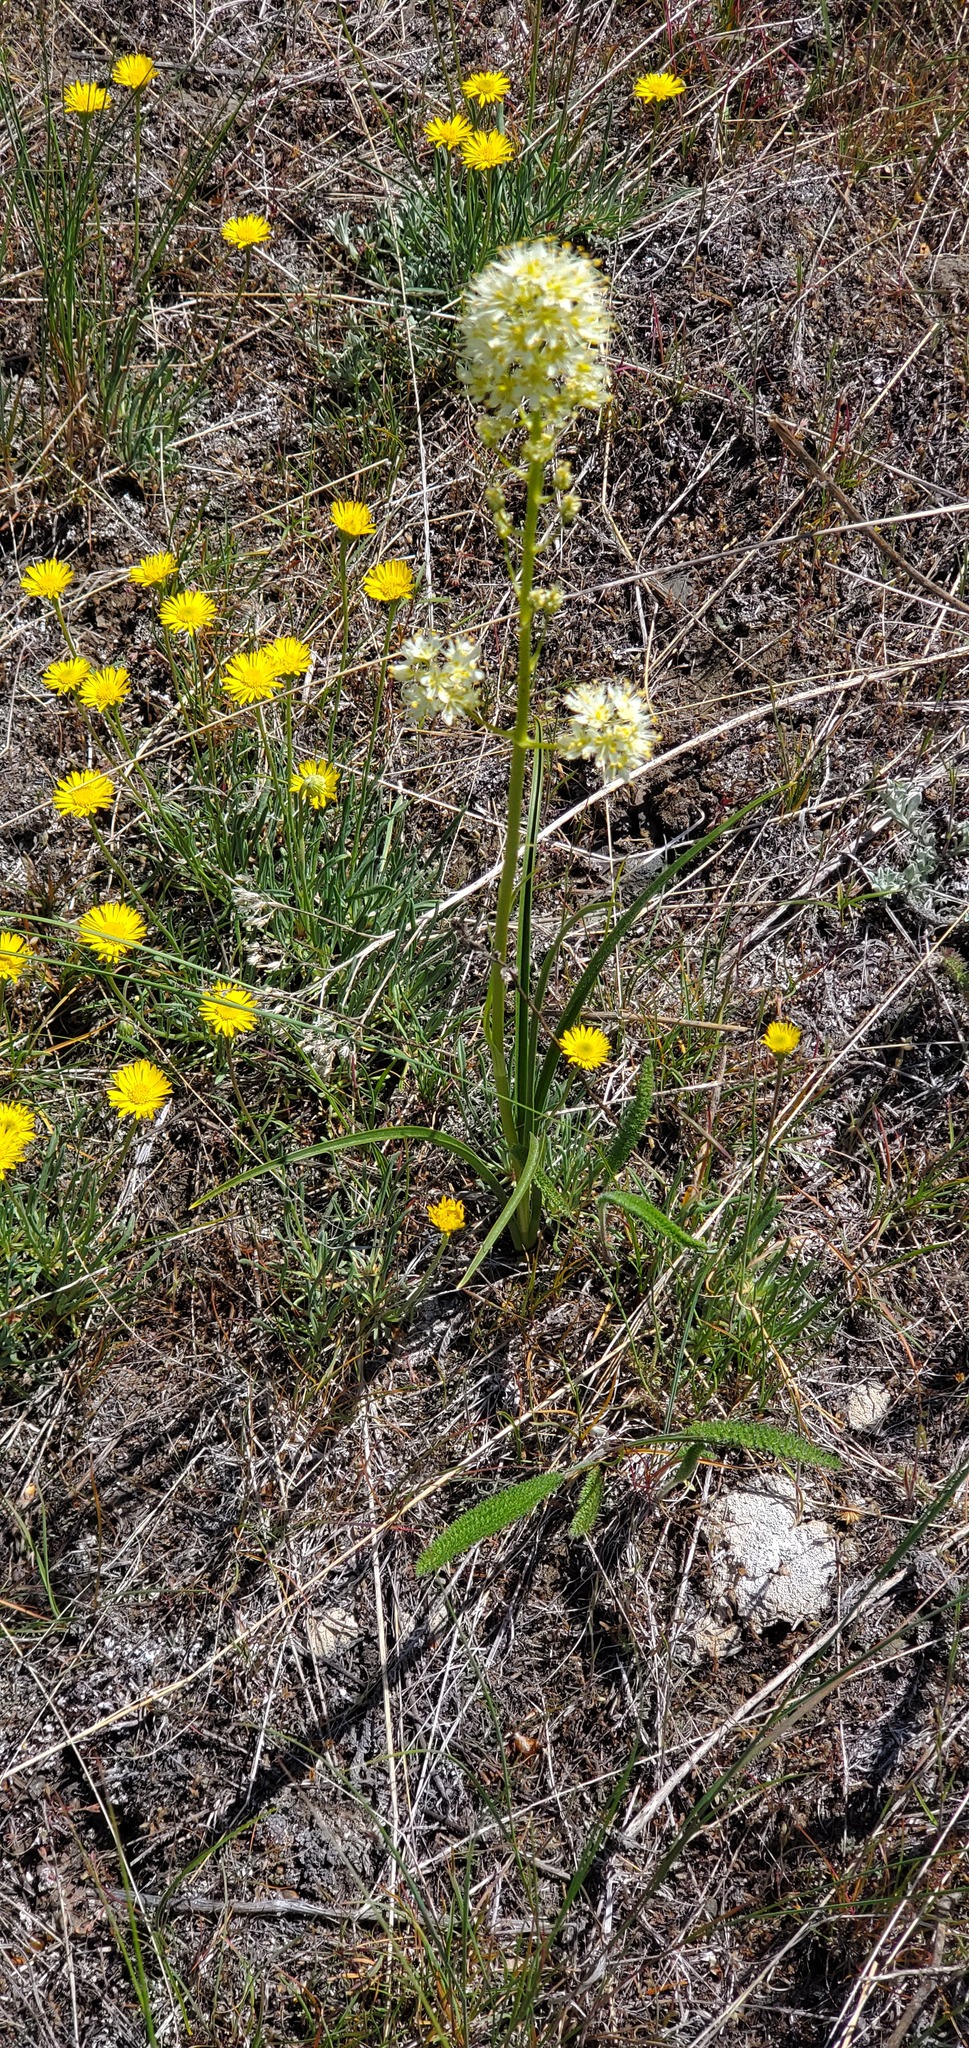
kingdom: Plantae
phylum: Tracheophyta
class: Liliopsida
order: Liliales
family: Melanthiaceae
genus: Toxicoscordion
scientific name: Toxicoscordion paniculatum
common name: Foothill death camas
